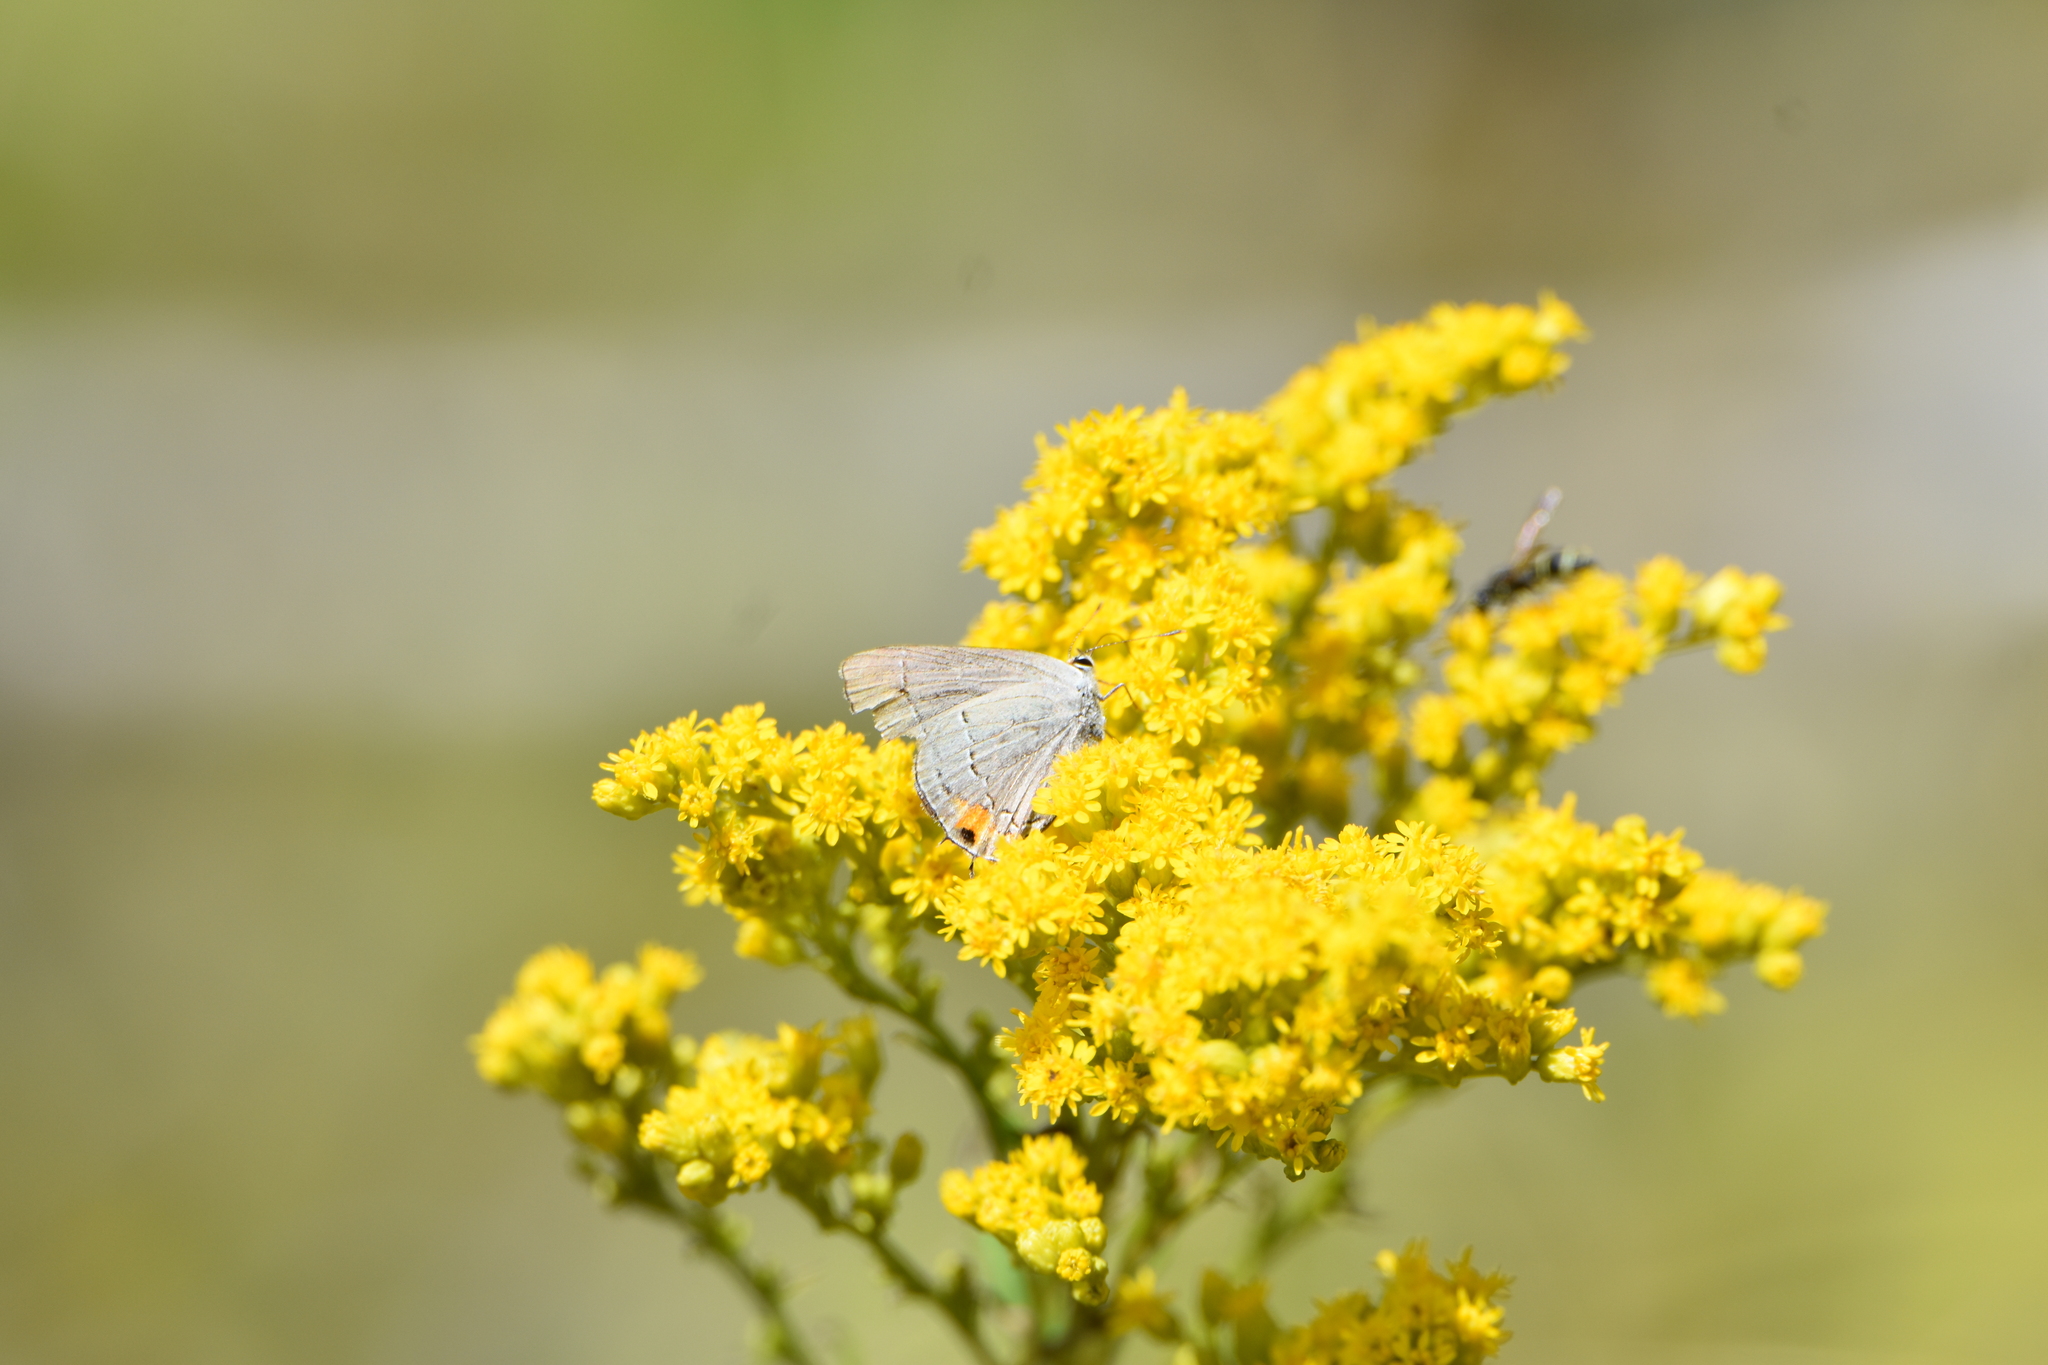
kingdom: Animalia
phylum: Arthropoda
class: Insecta
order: Lepidoptera
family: Lycaenidae
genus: Strymon
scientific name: Strymon melinus
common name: Gray hairstreak
